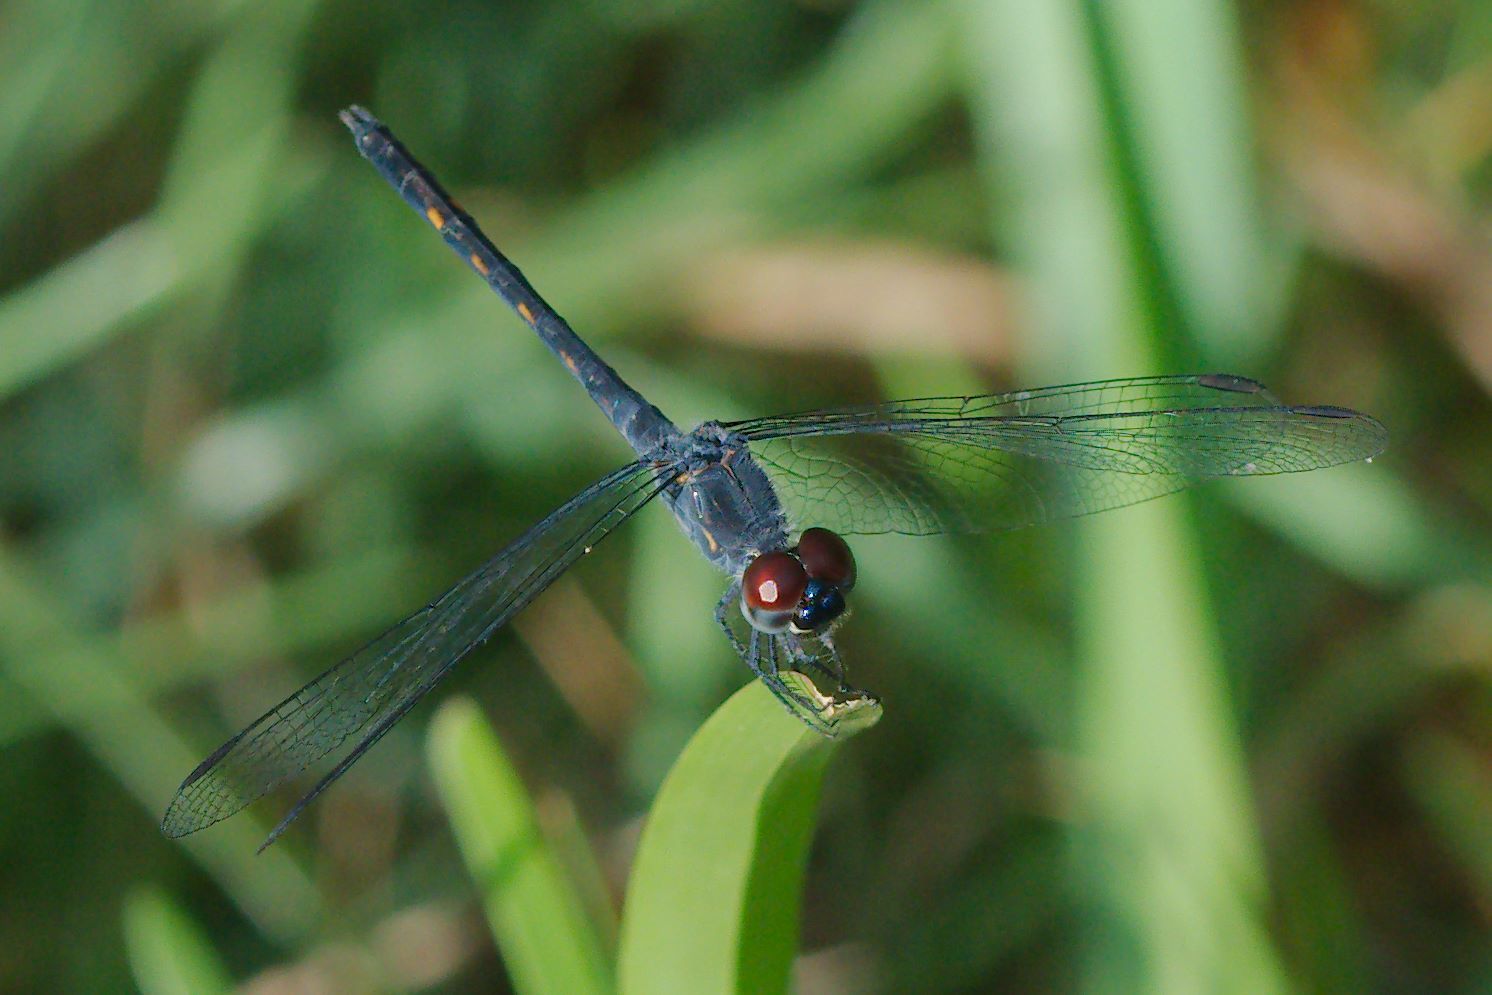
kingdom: Animalia
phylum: Arthropoda
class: Insecta
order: Odonata
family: Libellulidae
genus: Erythrodiplax
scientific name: Erythrodiplax berenice
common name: Seaside dragonlet
